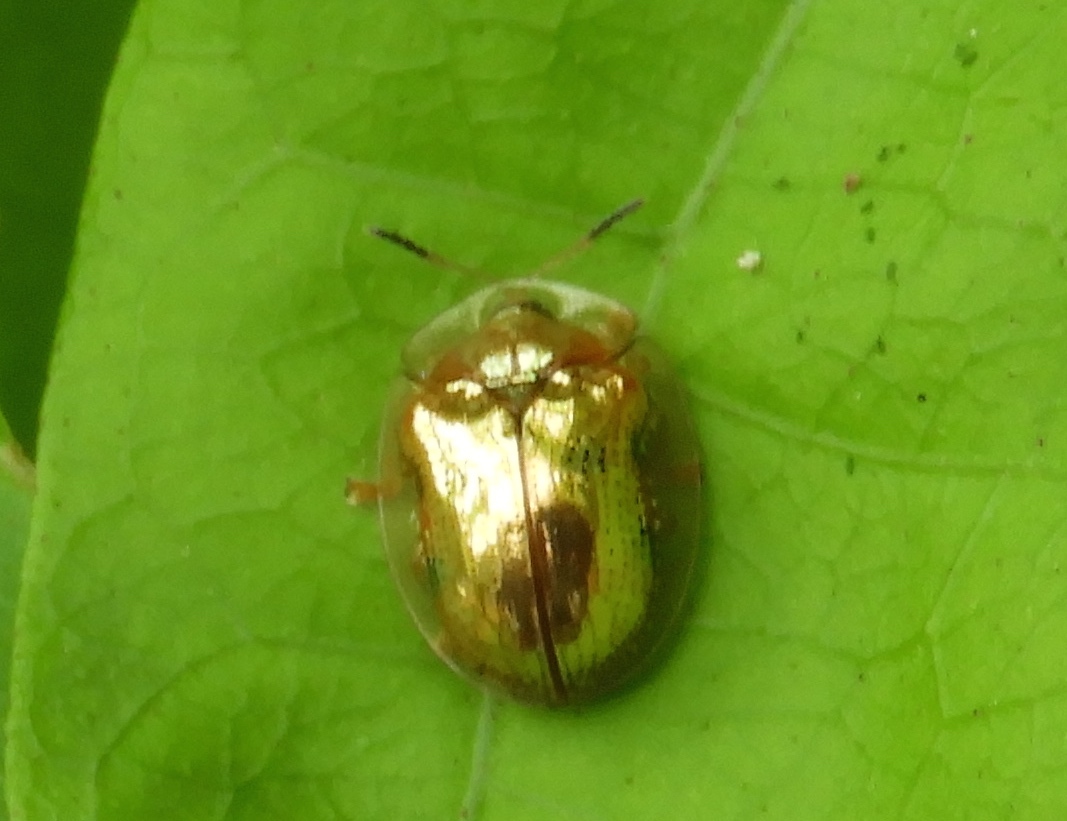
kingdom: Animalia
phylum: Arthropoda
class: Insecta
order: Coleoptera
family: Chrysomelidae
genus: Charidotella
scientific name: Charidotella sexpunctata
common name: Golden tortoise beetle
